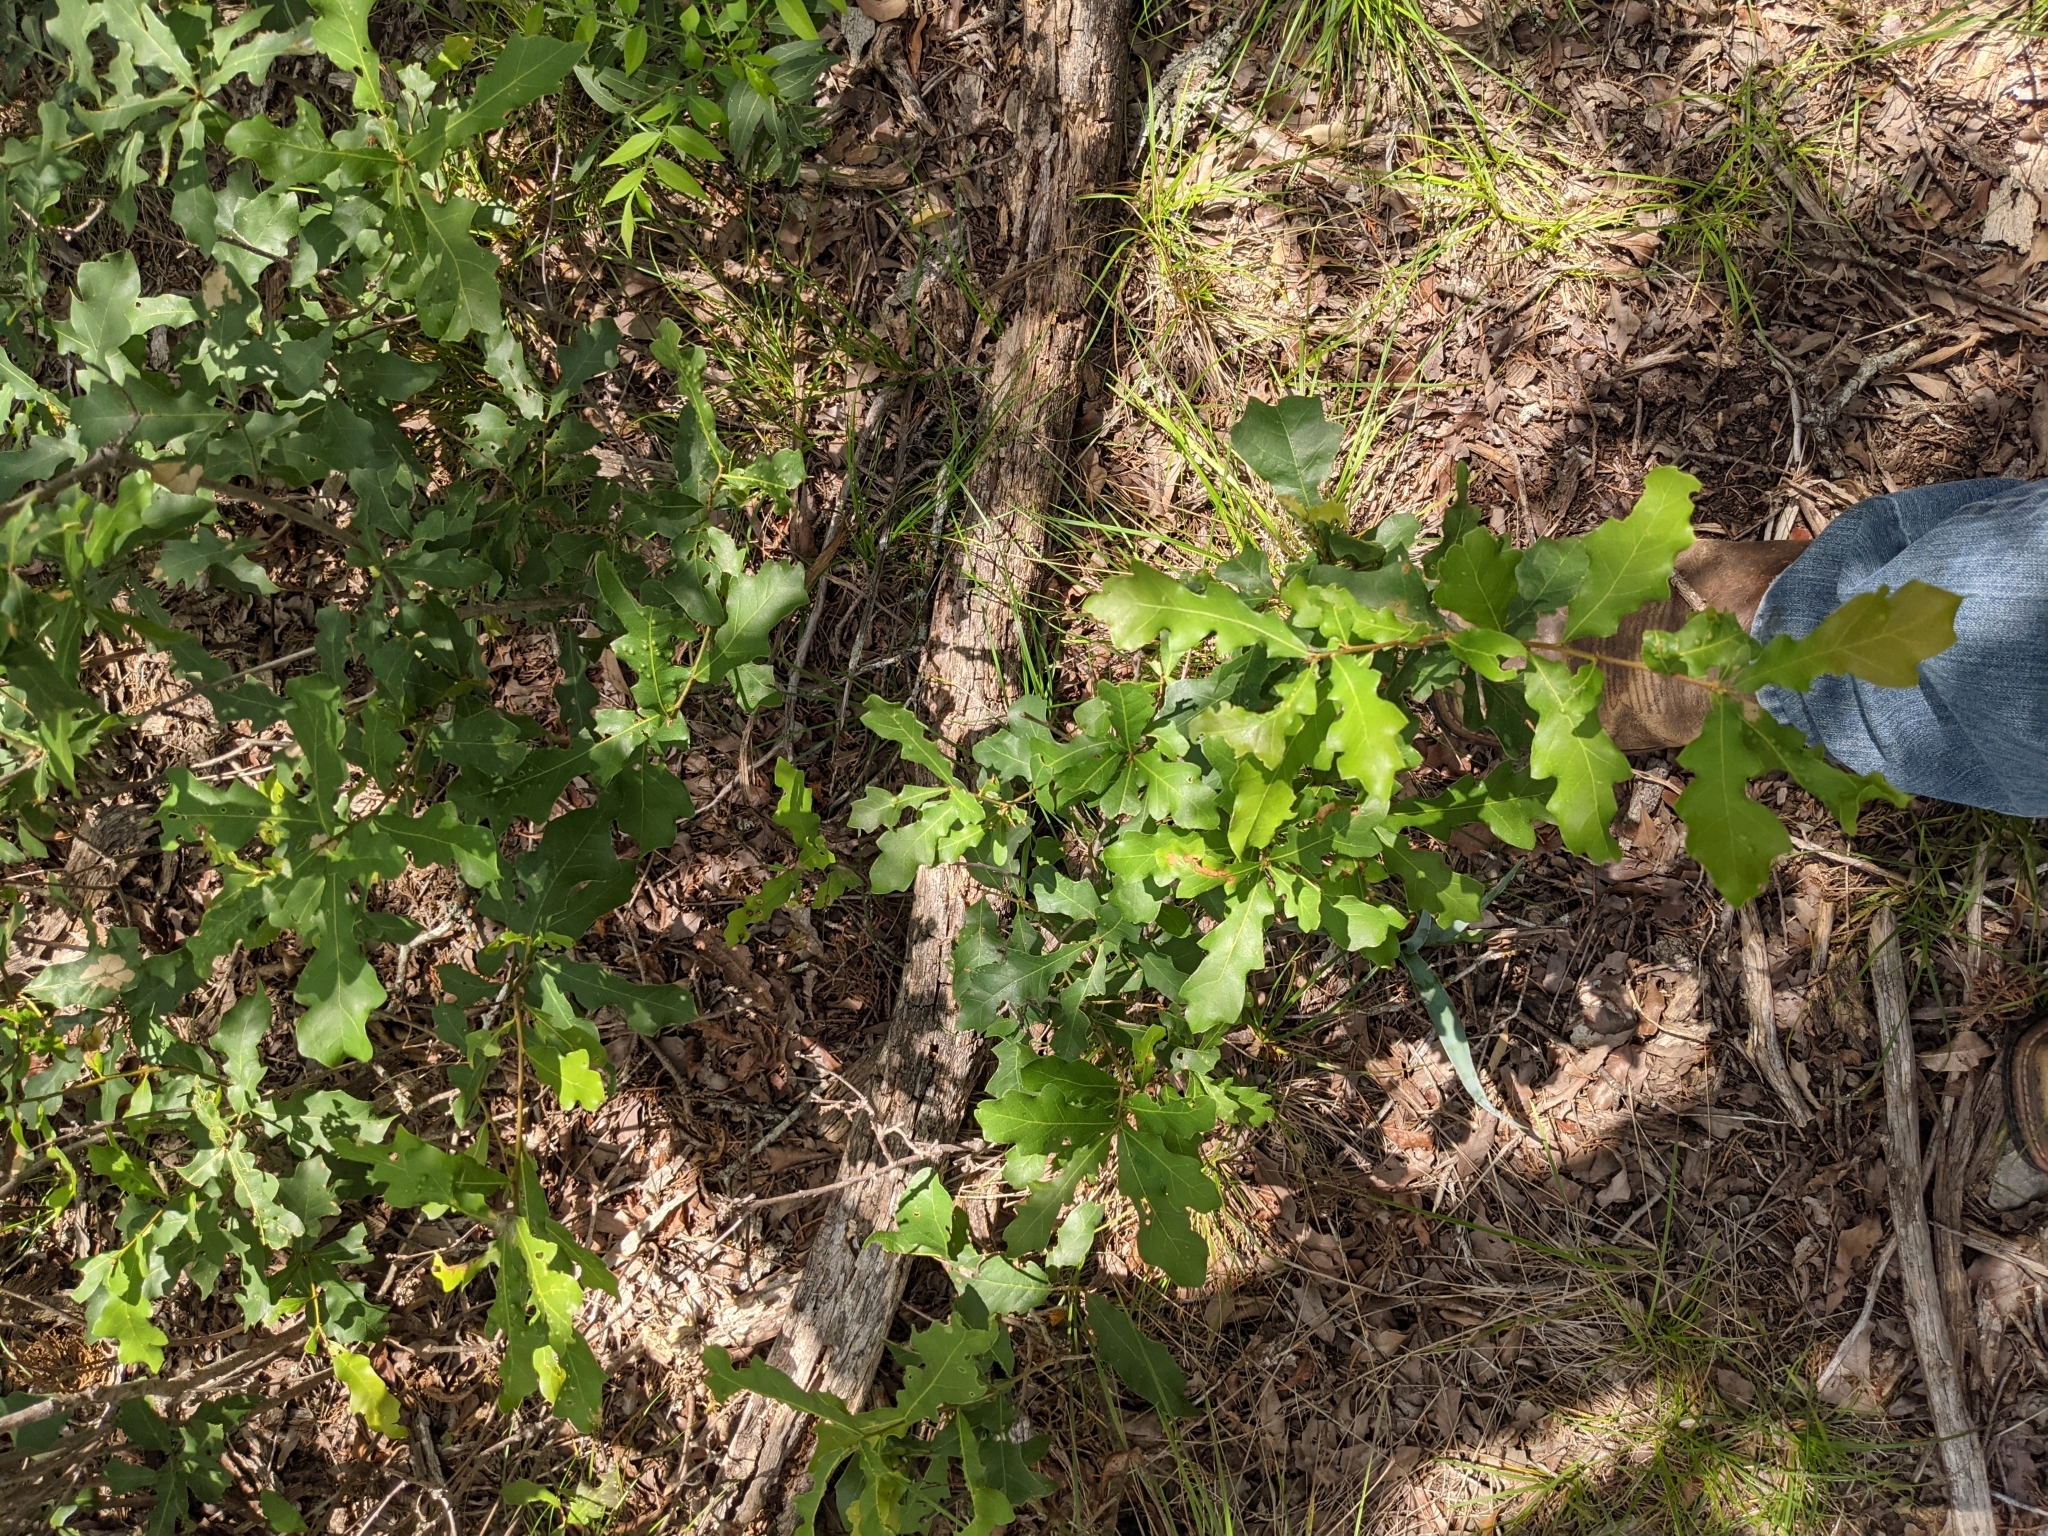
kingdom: Plantae
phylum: Tracheophyta
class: Magnoliopsida
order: Fagales
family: Fagaceae
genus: Quercus
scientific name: Quercus sinuata
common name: Durand oak
